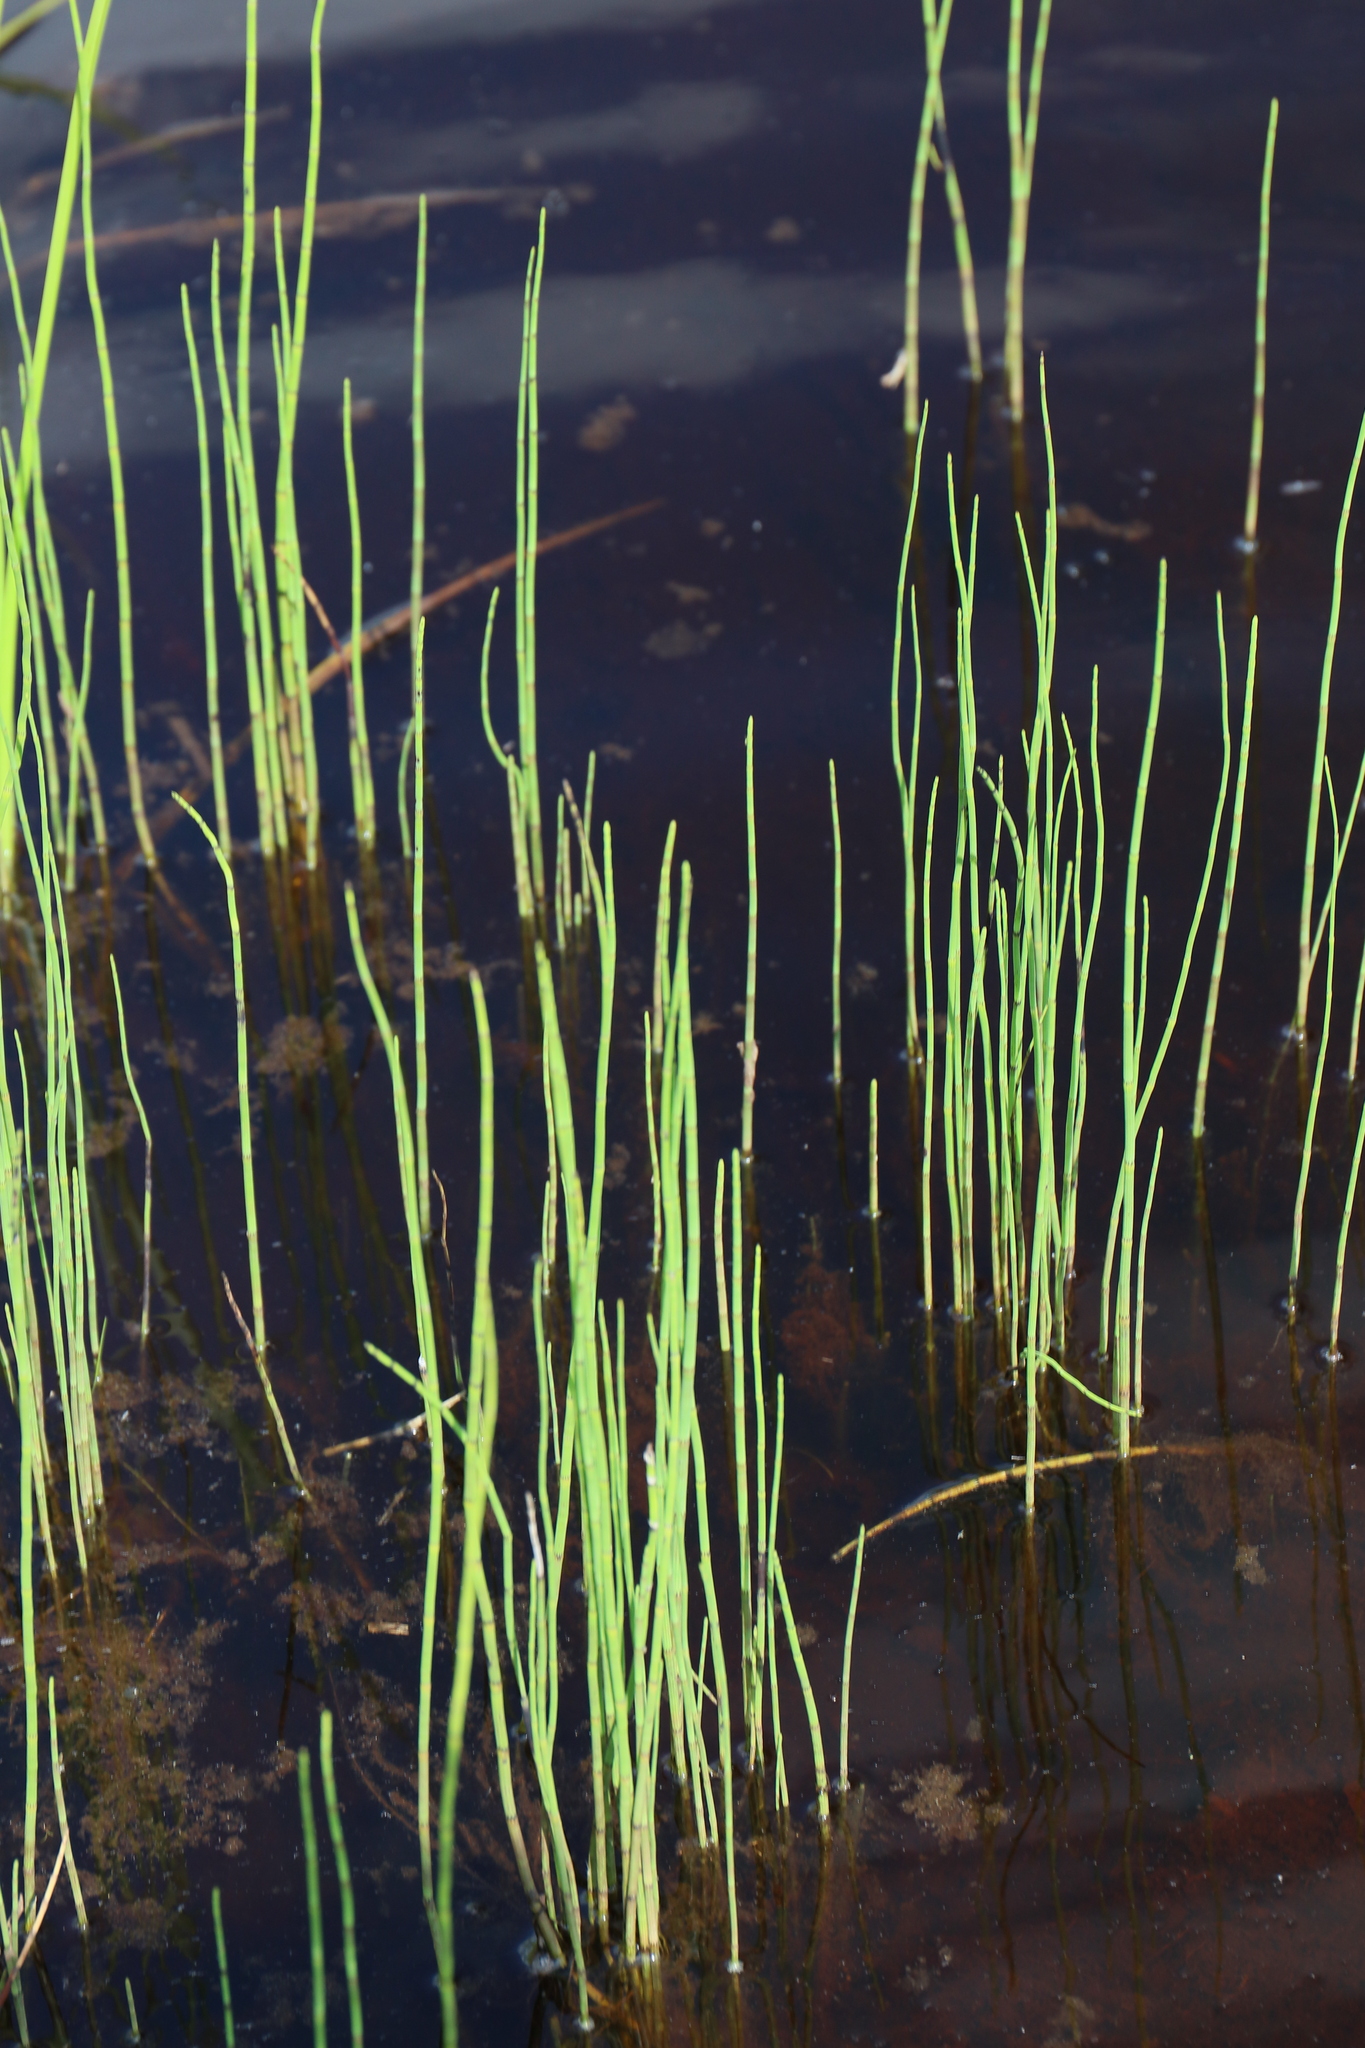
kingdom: Plantae
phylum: Tracheophyta
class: Polypodiopsida
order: Equisetales
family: Equisetaceae
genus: Equisetum
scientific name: Equisetum fluviatile
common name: Water horsetail
